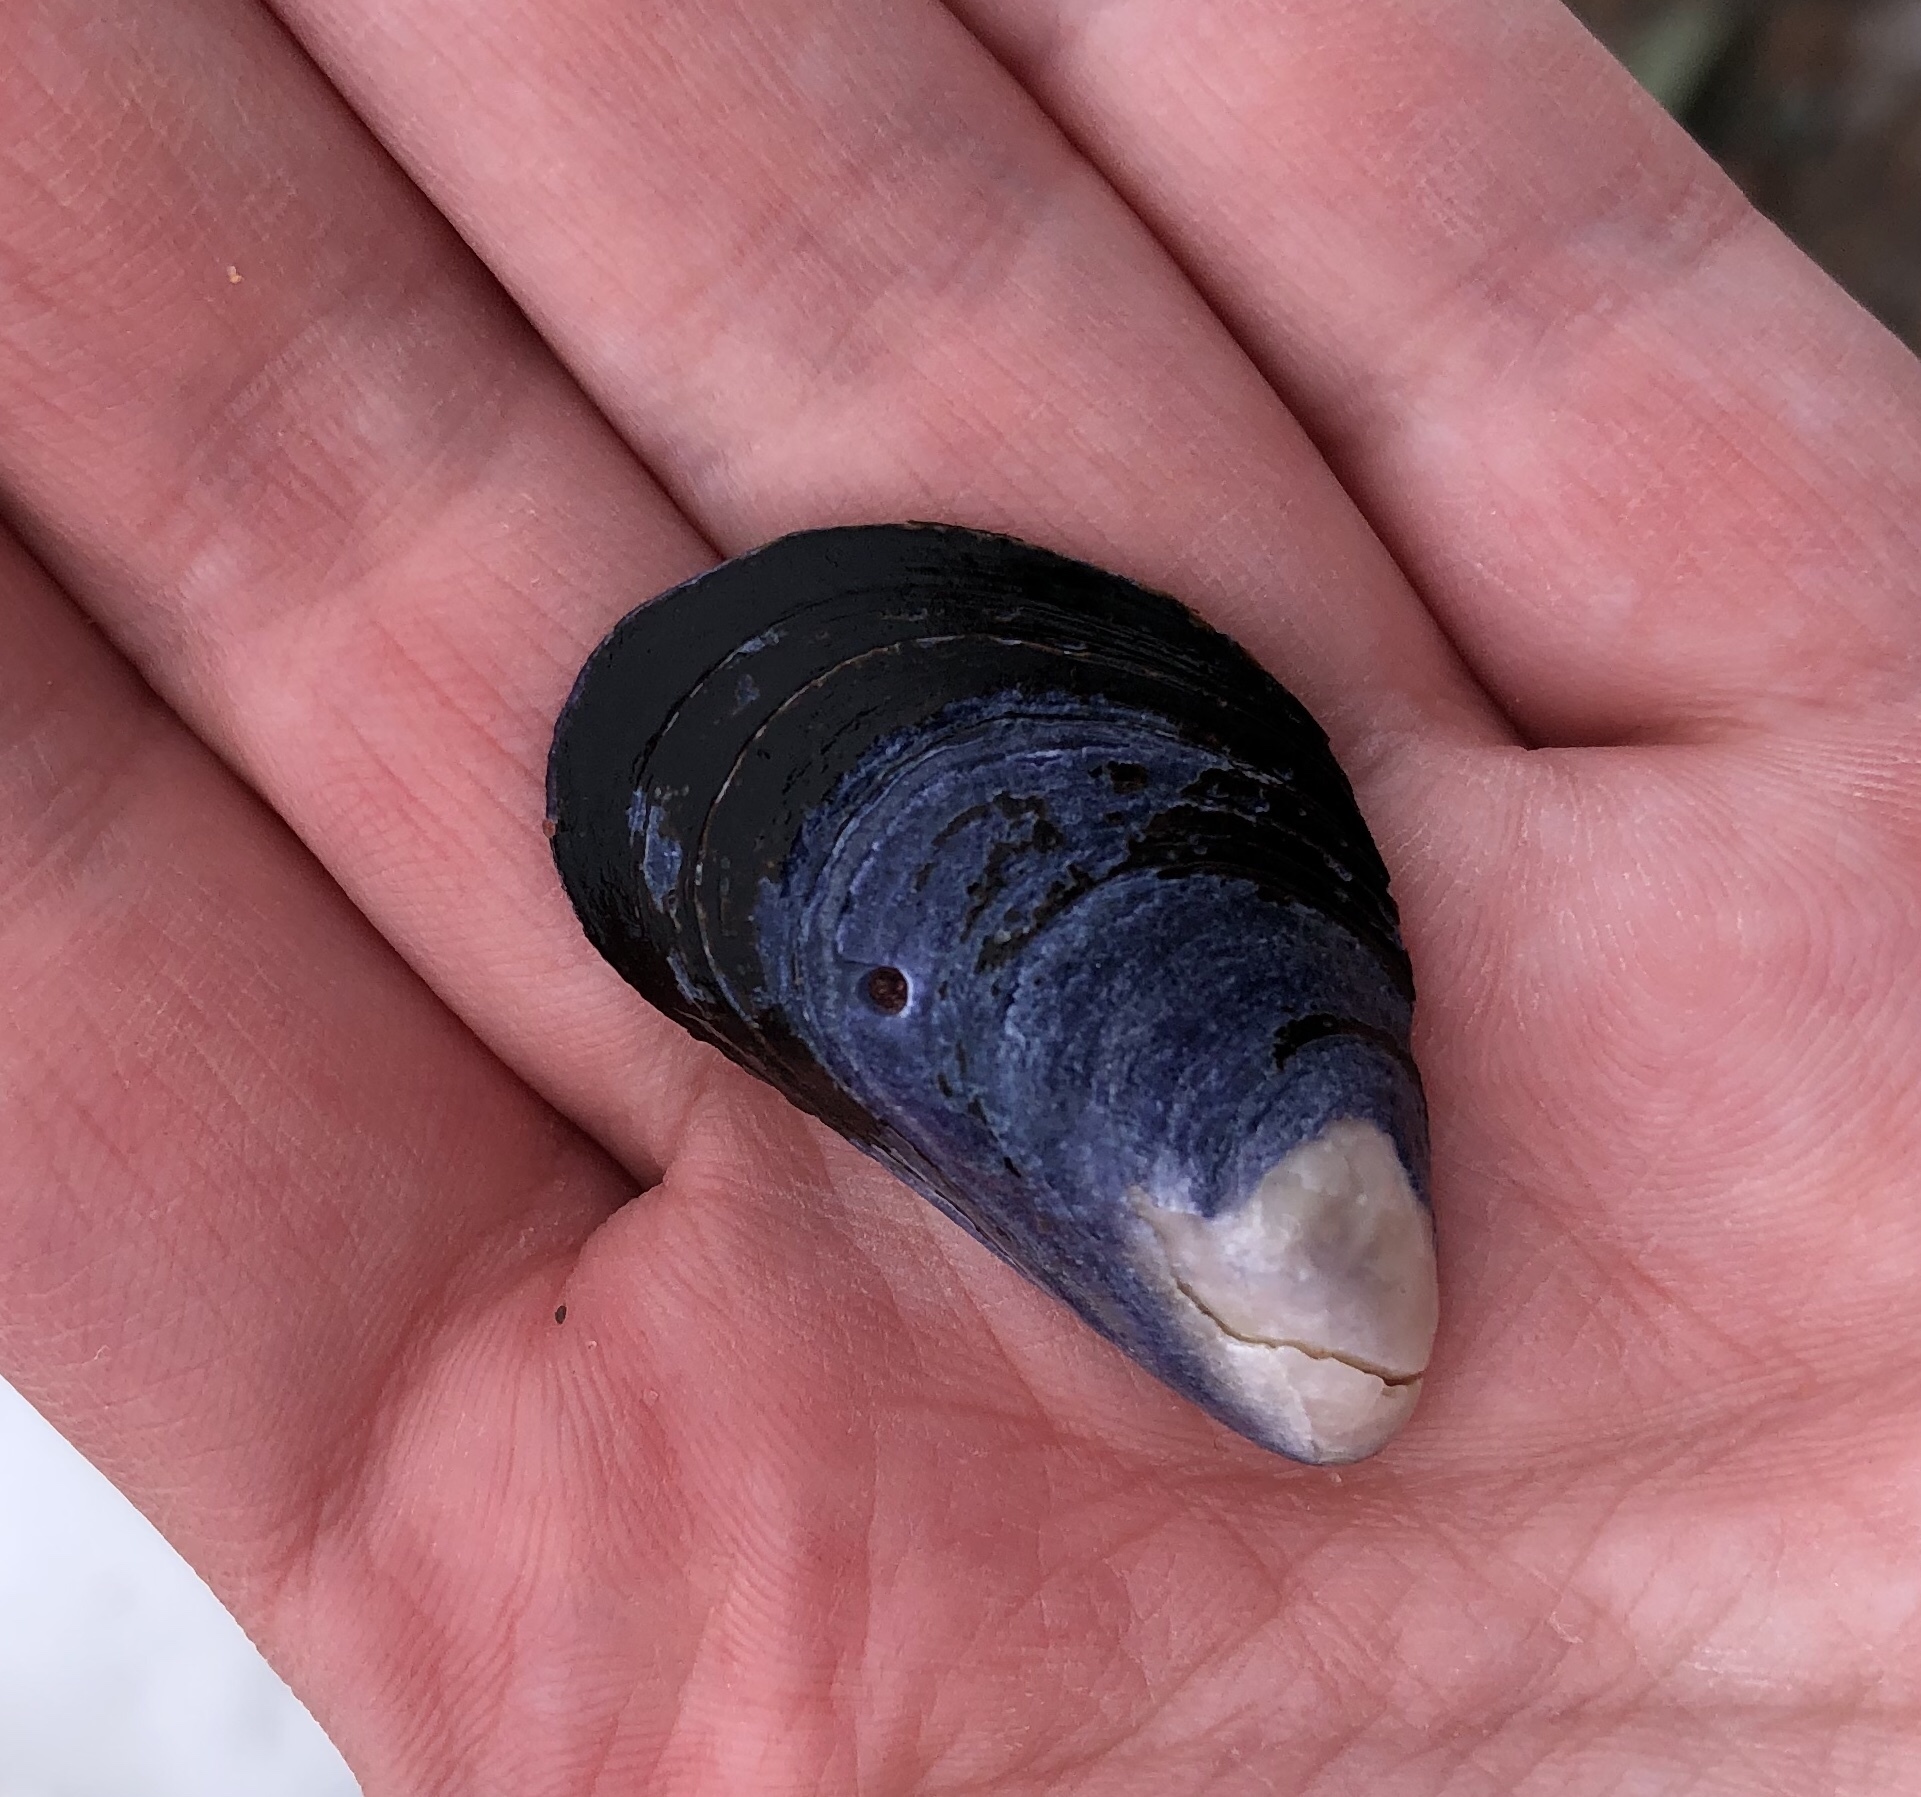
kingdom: Animalia
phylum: Mollusca
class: Bivalvia
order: Mytilida
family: Mytilidae
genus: Mytilus
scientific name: Mytilus edulis
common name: Blue mussel
